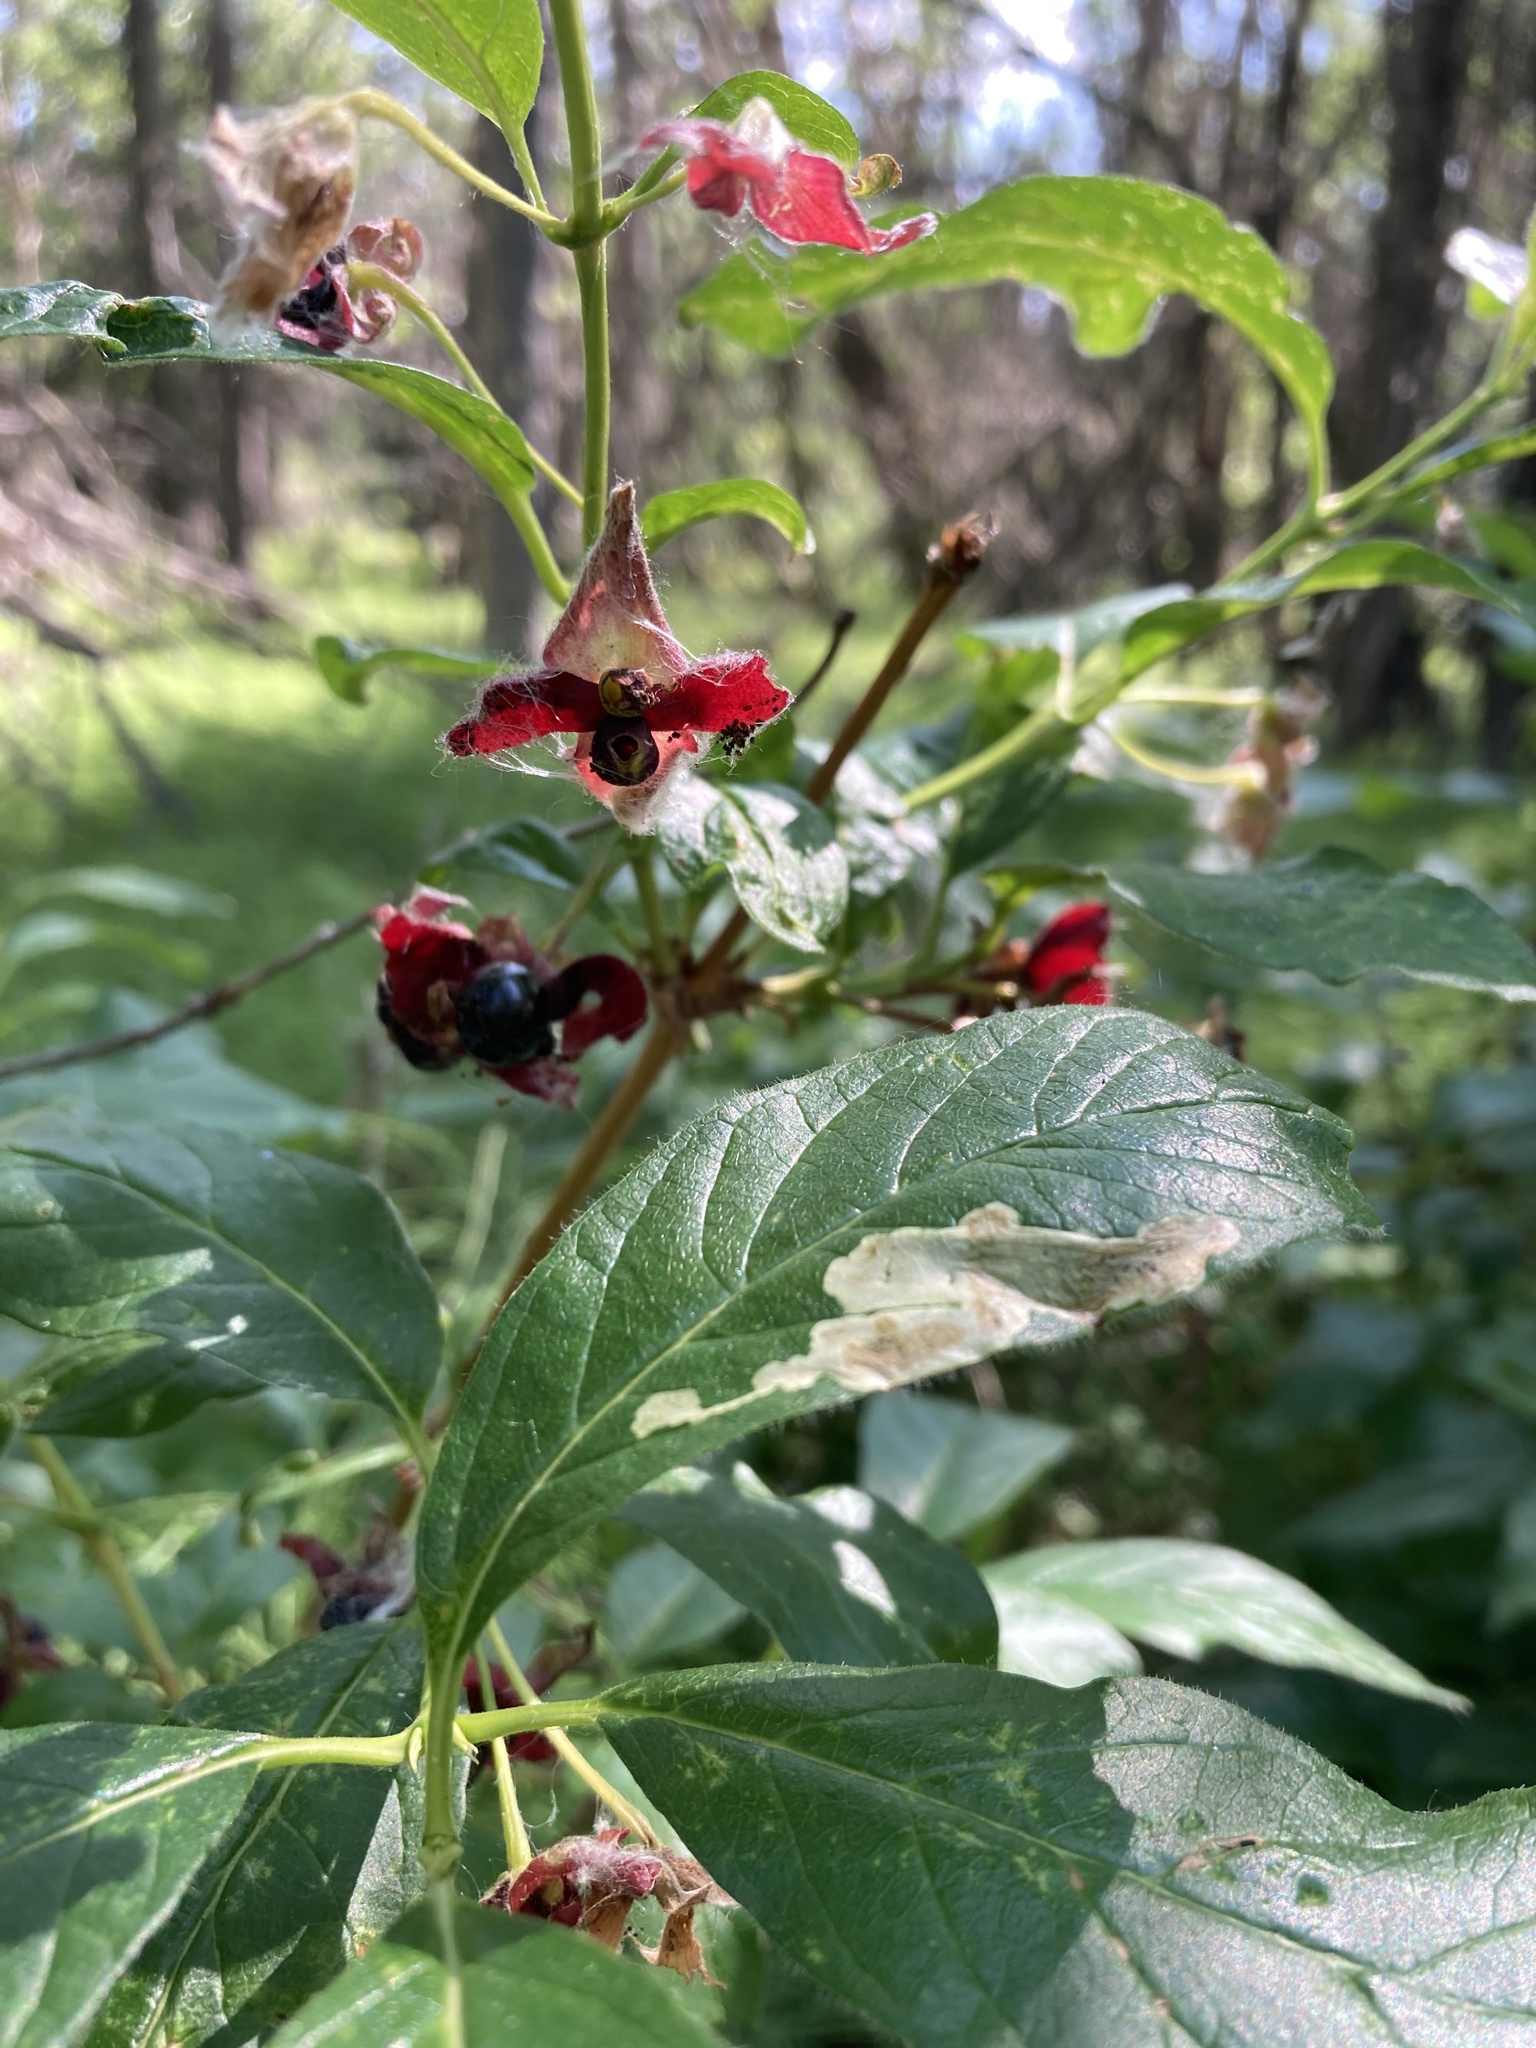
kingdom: Plantae
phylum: Tracheophyta
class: Magnoliopsida
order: Dipsacales
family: Caprifoliaceae
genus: Lonicera
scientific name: Lonicera involucrata
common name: Californian honeysuckle
